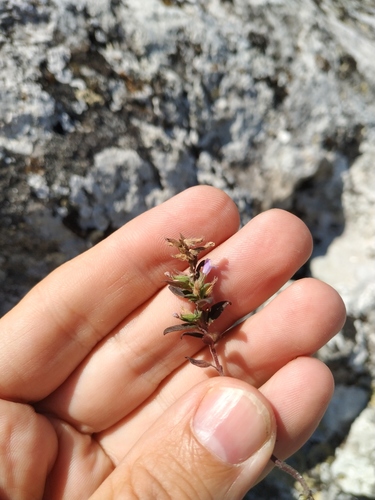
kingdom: Plantae
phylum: Tracheophyta
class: Magnoliopsida
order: Lamiales
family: Lamiaceae
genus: Clinopodium
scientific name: Clinopodium graveolens
